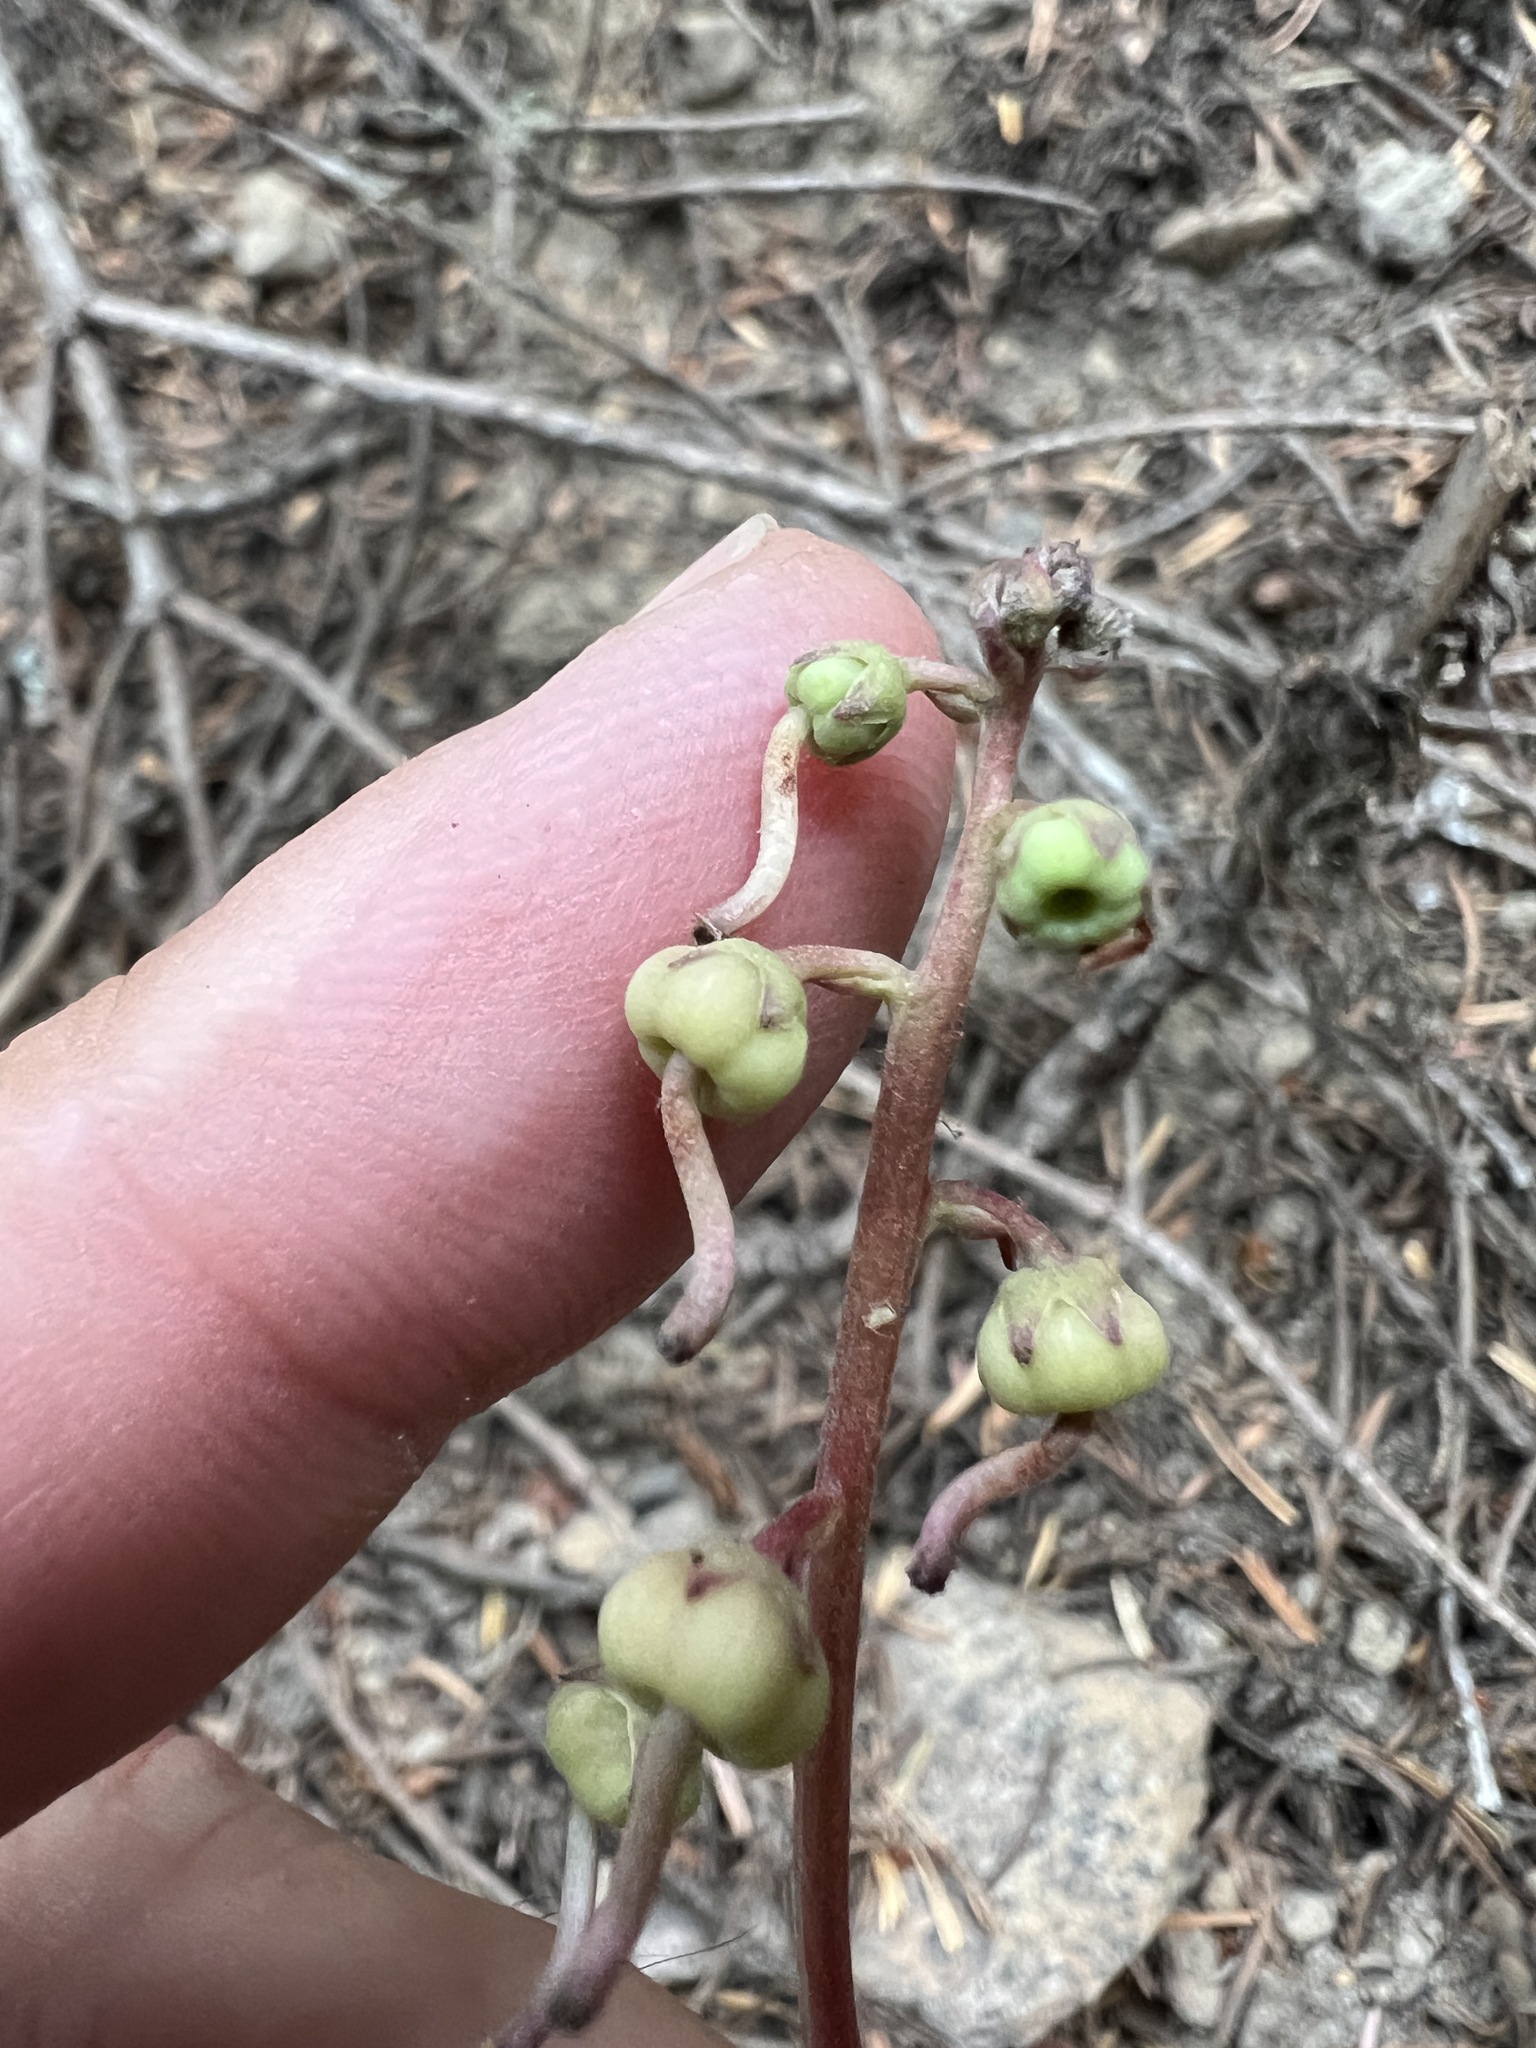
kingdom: Plantae
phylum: Tracheophyta
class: Magnoliopsida
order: Ericales
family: Ericaceae
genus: Pyrola
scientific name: Pyrola aphylla
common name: Leafless wintergreen
